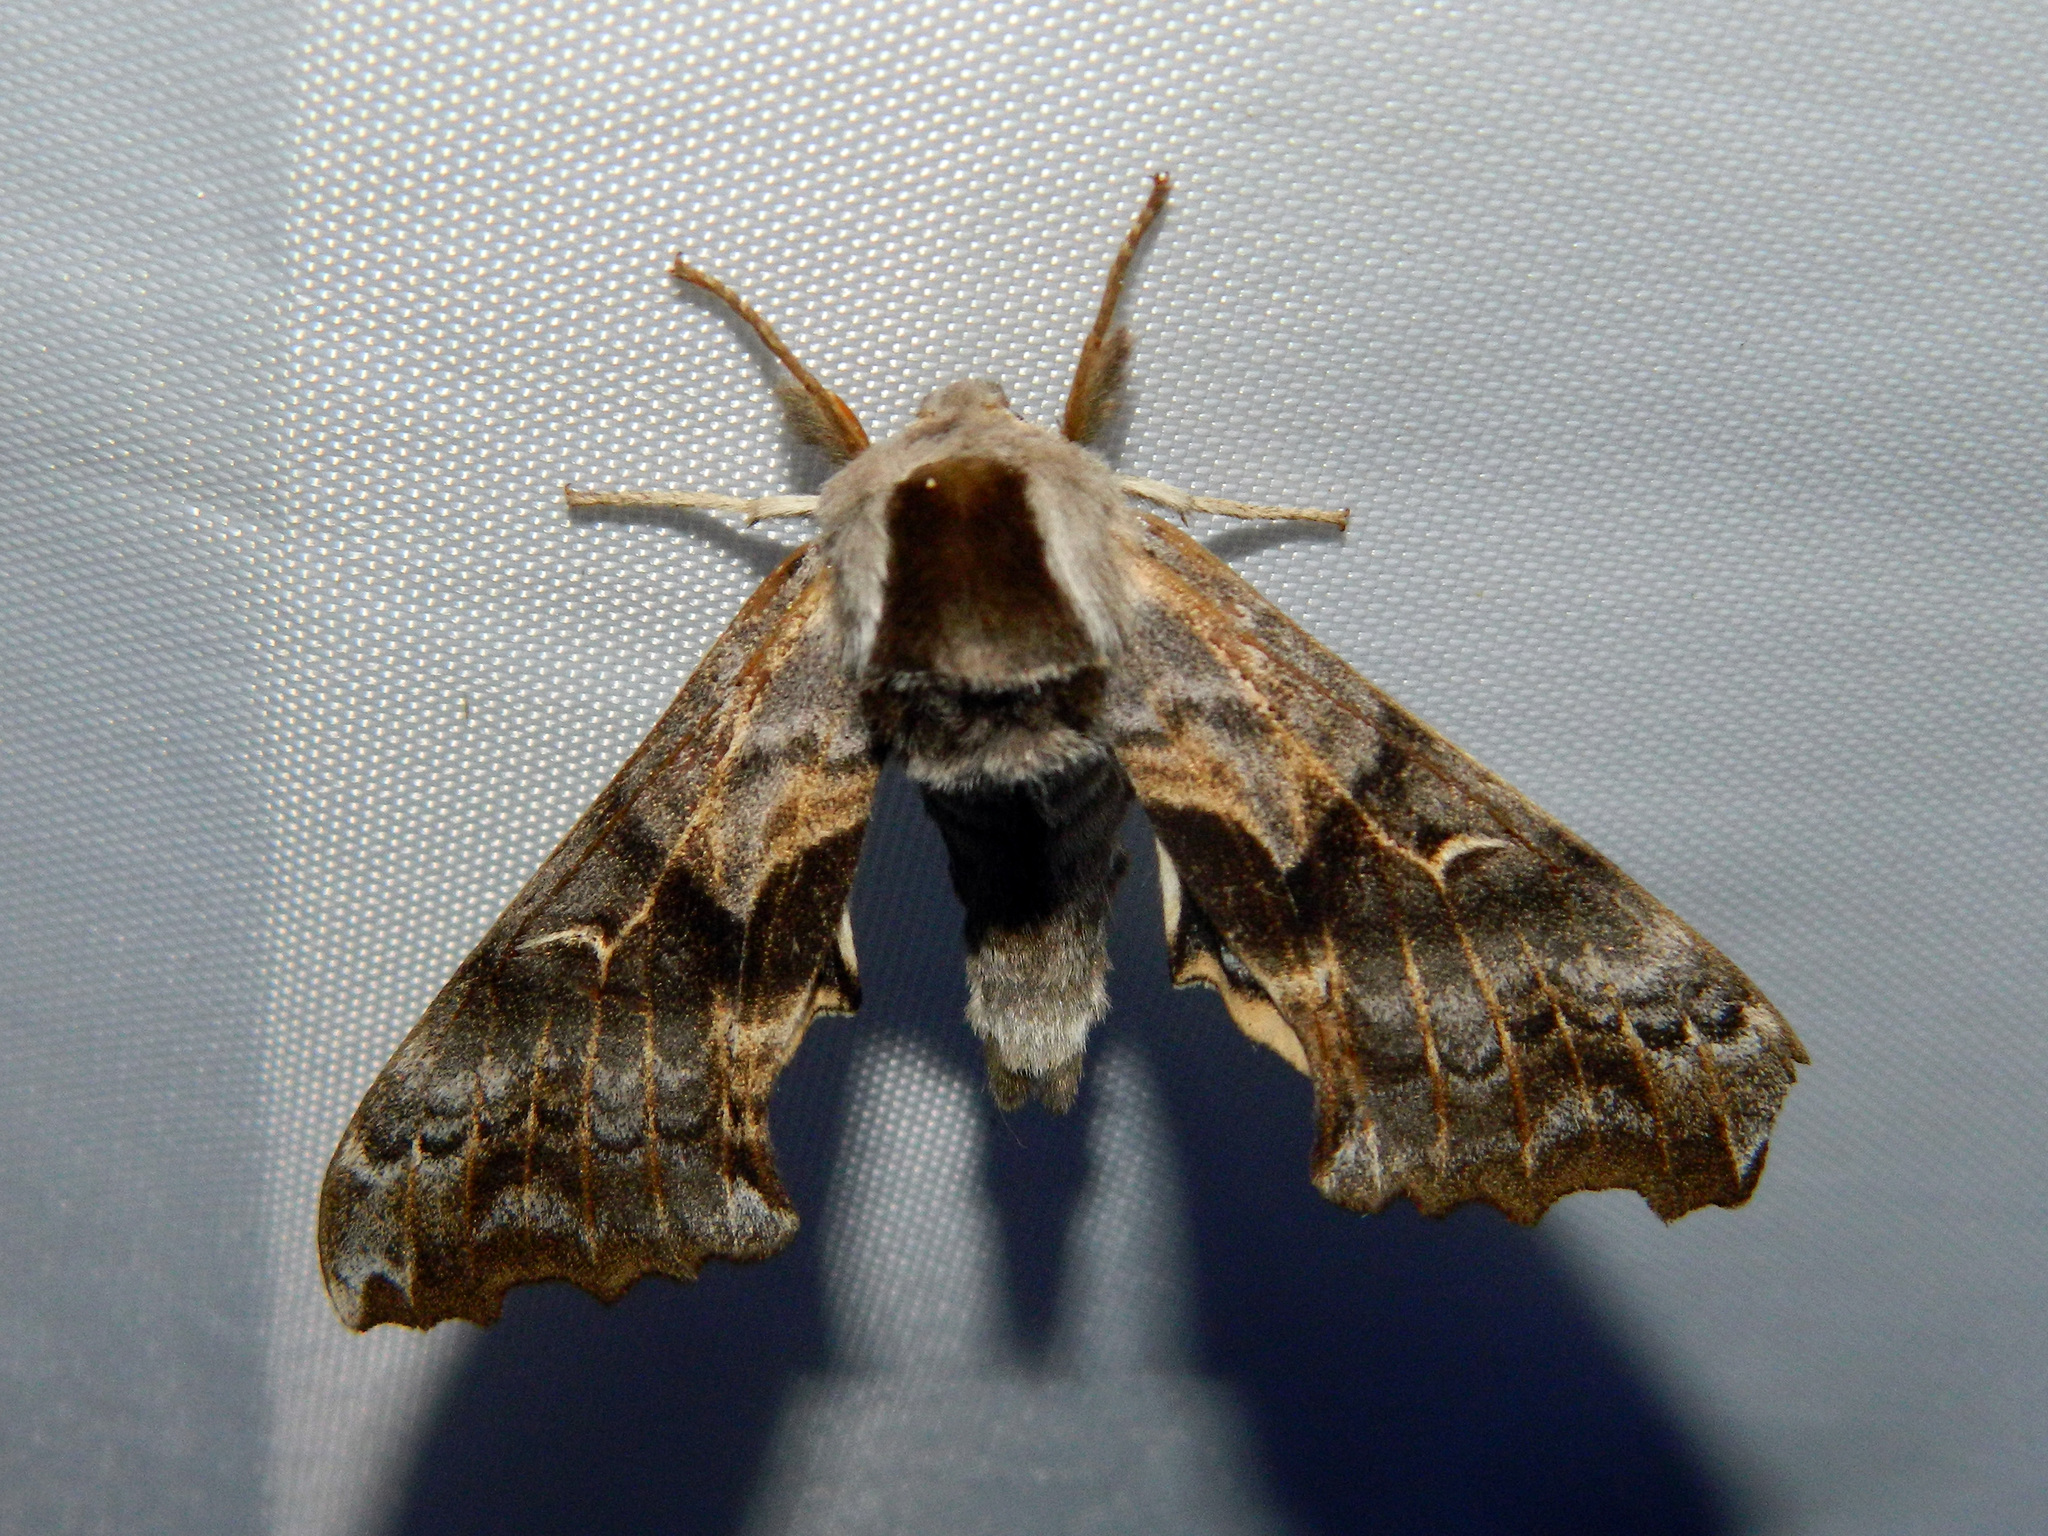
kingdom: Animalia
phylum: Arthropoda
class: Insecta
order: Lepidoptera
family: Sphingidae
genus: Smerinthus
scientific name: Smerinthus cerisyi
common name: Cerisy's sphinx moth
